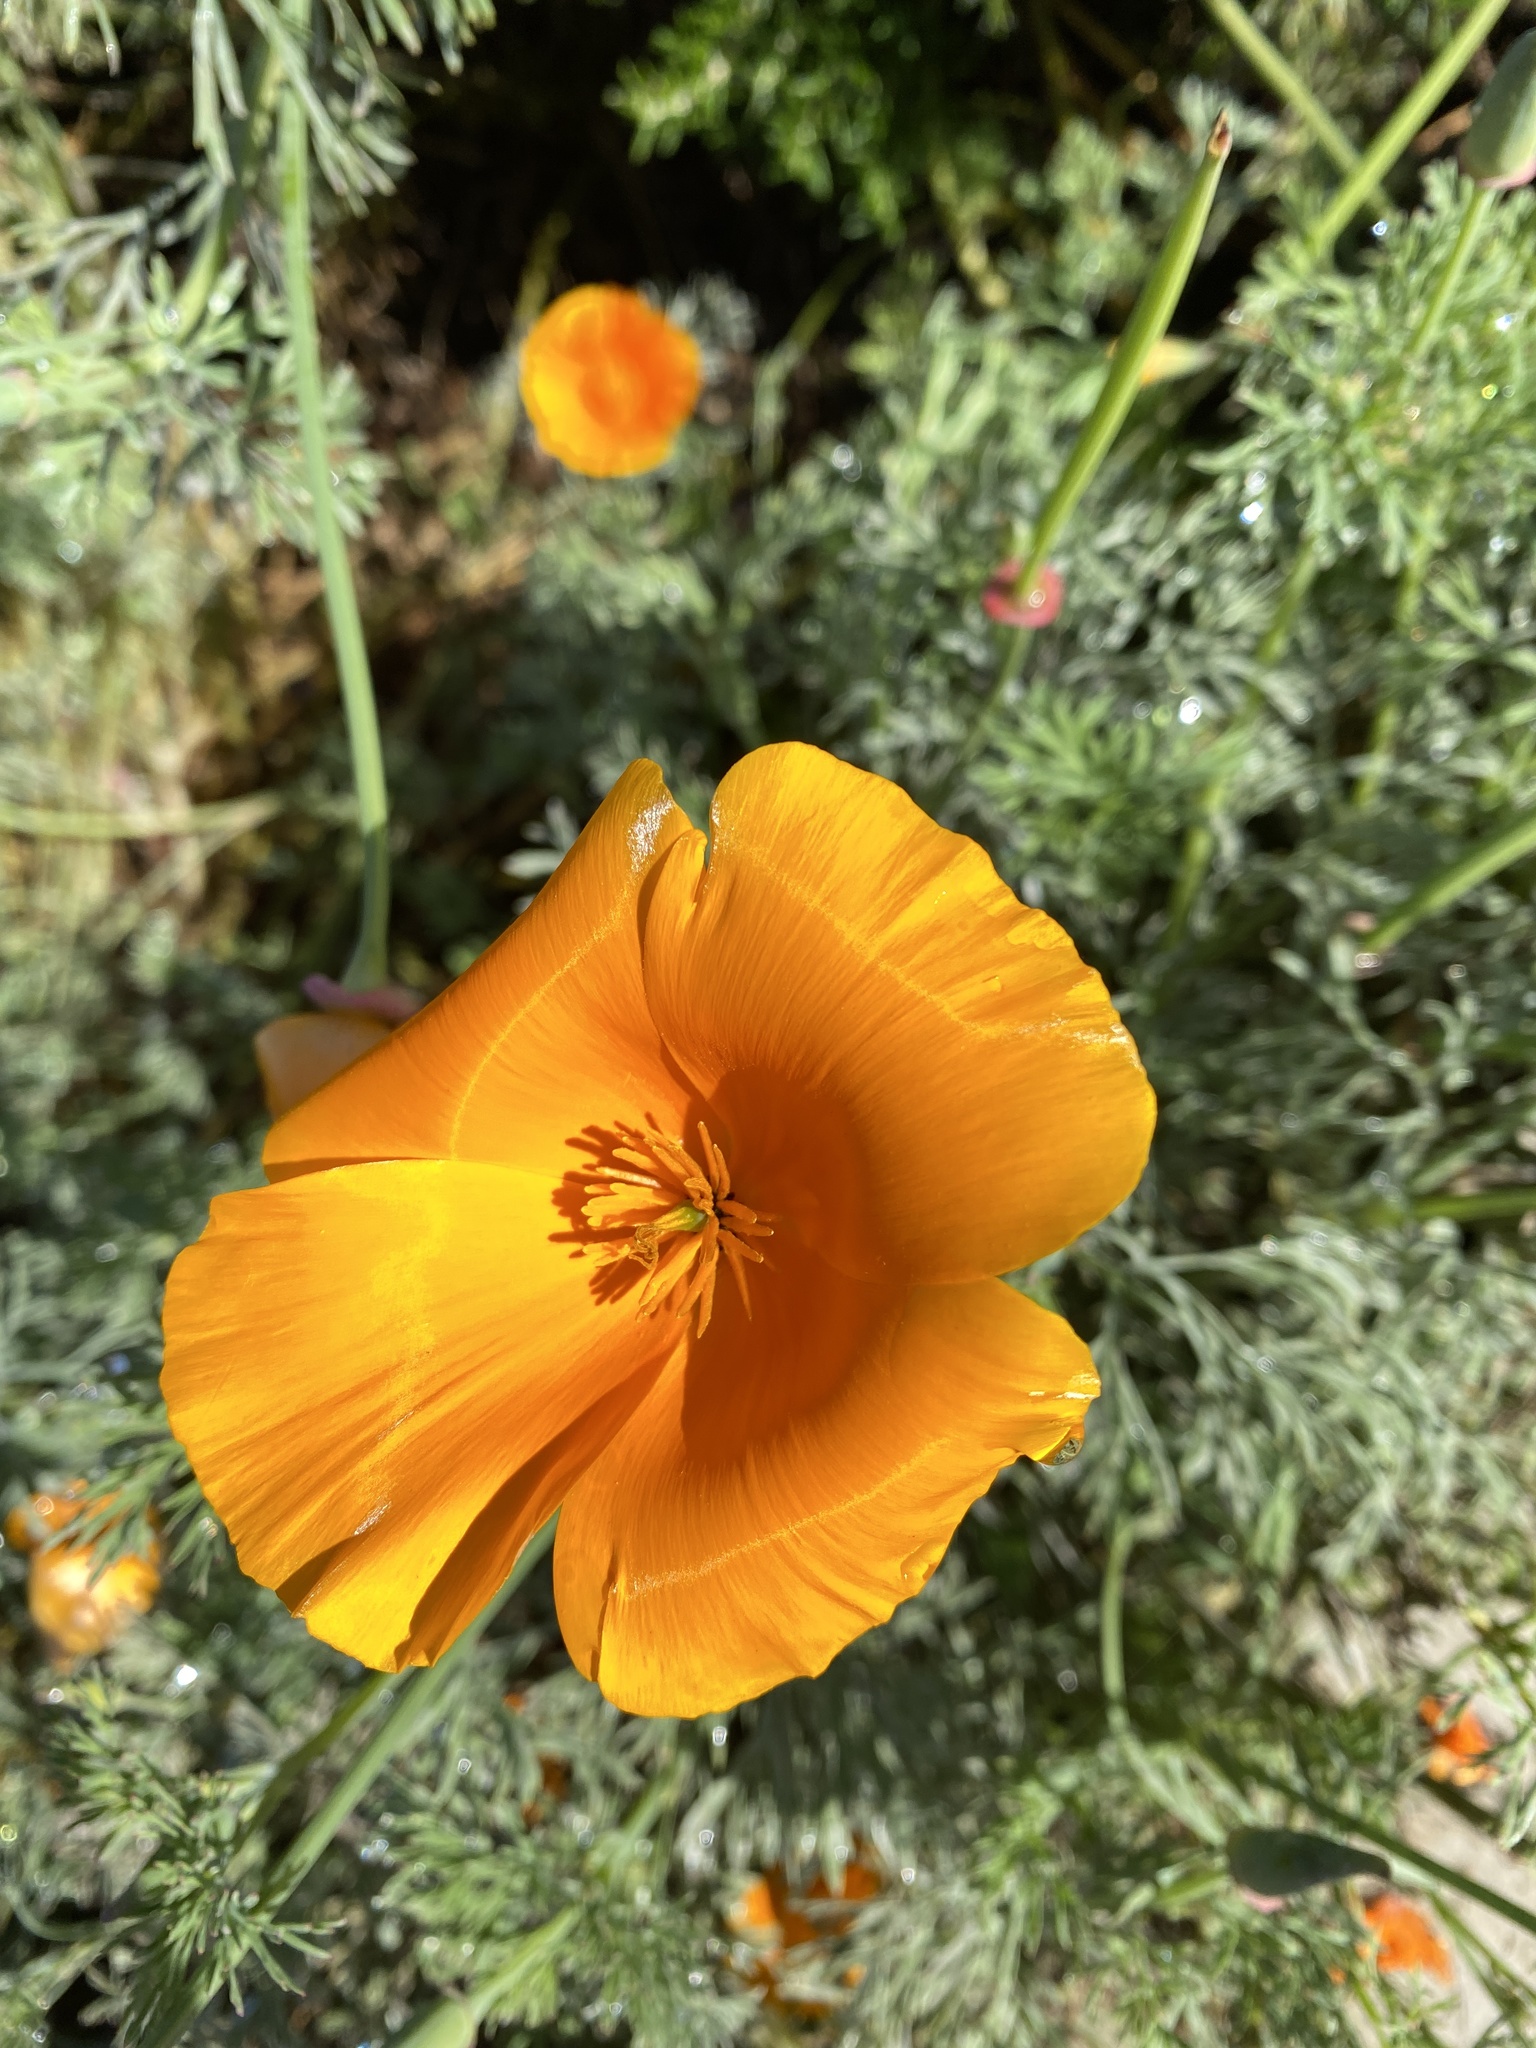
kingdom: Plantae
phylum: Tracheophyta
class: Magnoliopsida
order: Ranunculales
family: Papaveraceae
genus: Eschscholzia
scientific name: Eschscholzia californica
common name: California poppy
